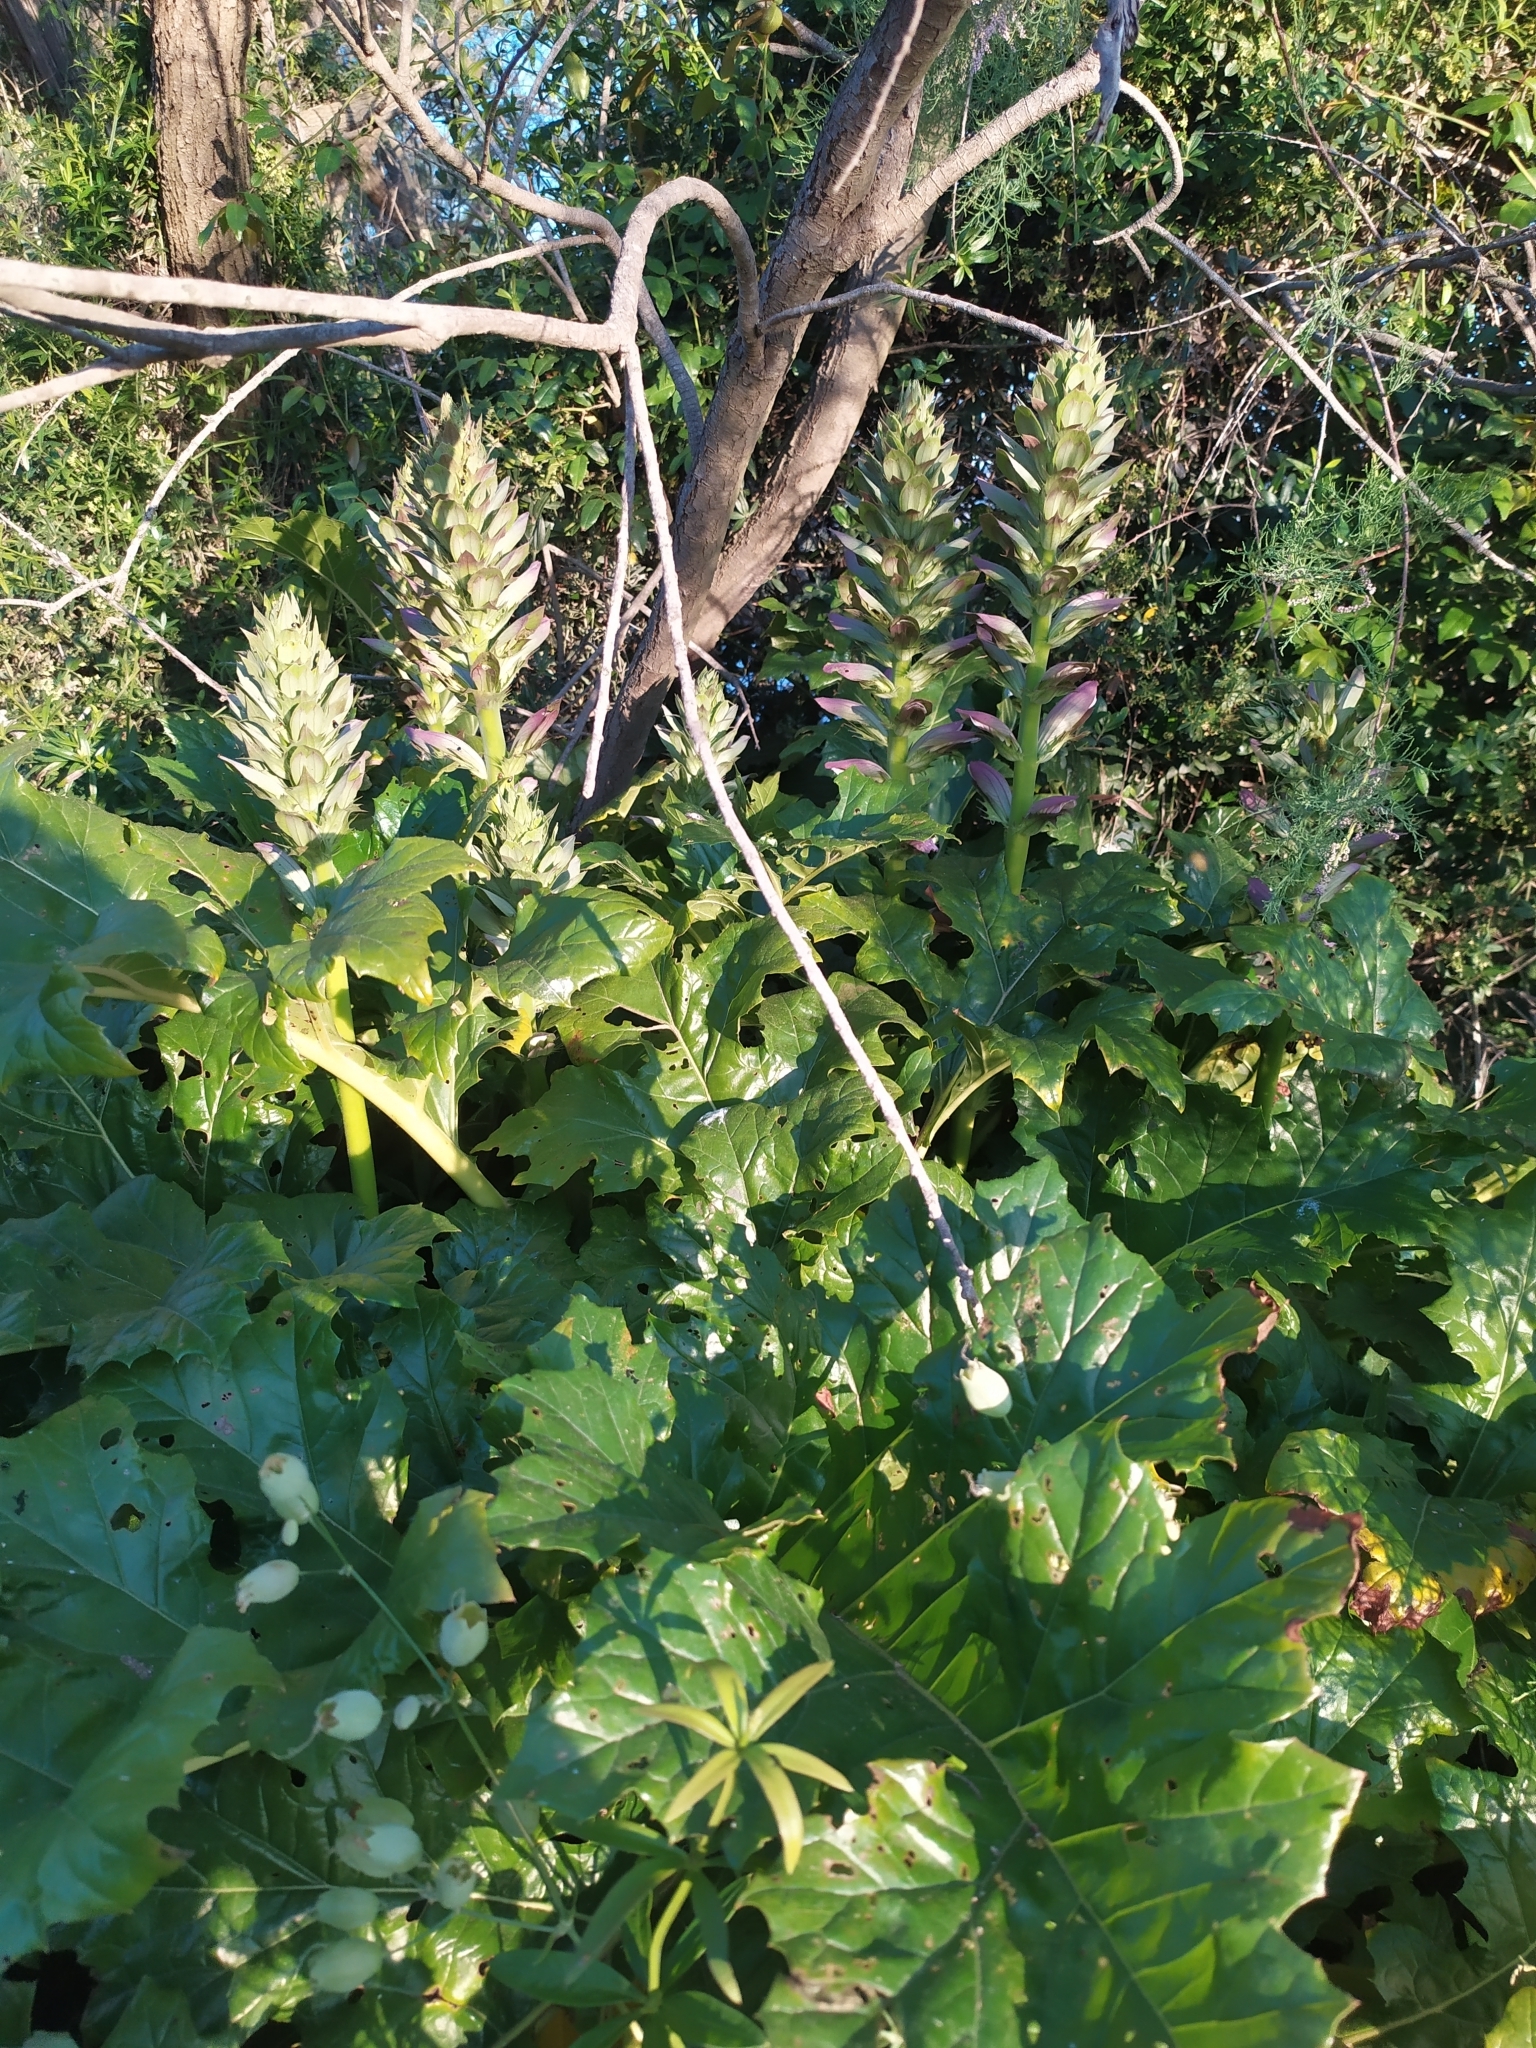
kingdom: Plantae
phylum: Tracheophyta
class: Magnoliopsida
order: Lamiales
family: Acanthaceae
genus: Acanthus
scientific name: Acanthus mollis
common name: Bear's-breech
